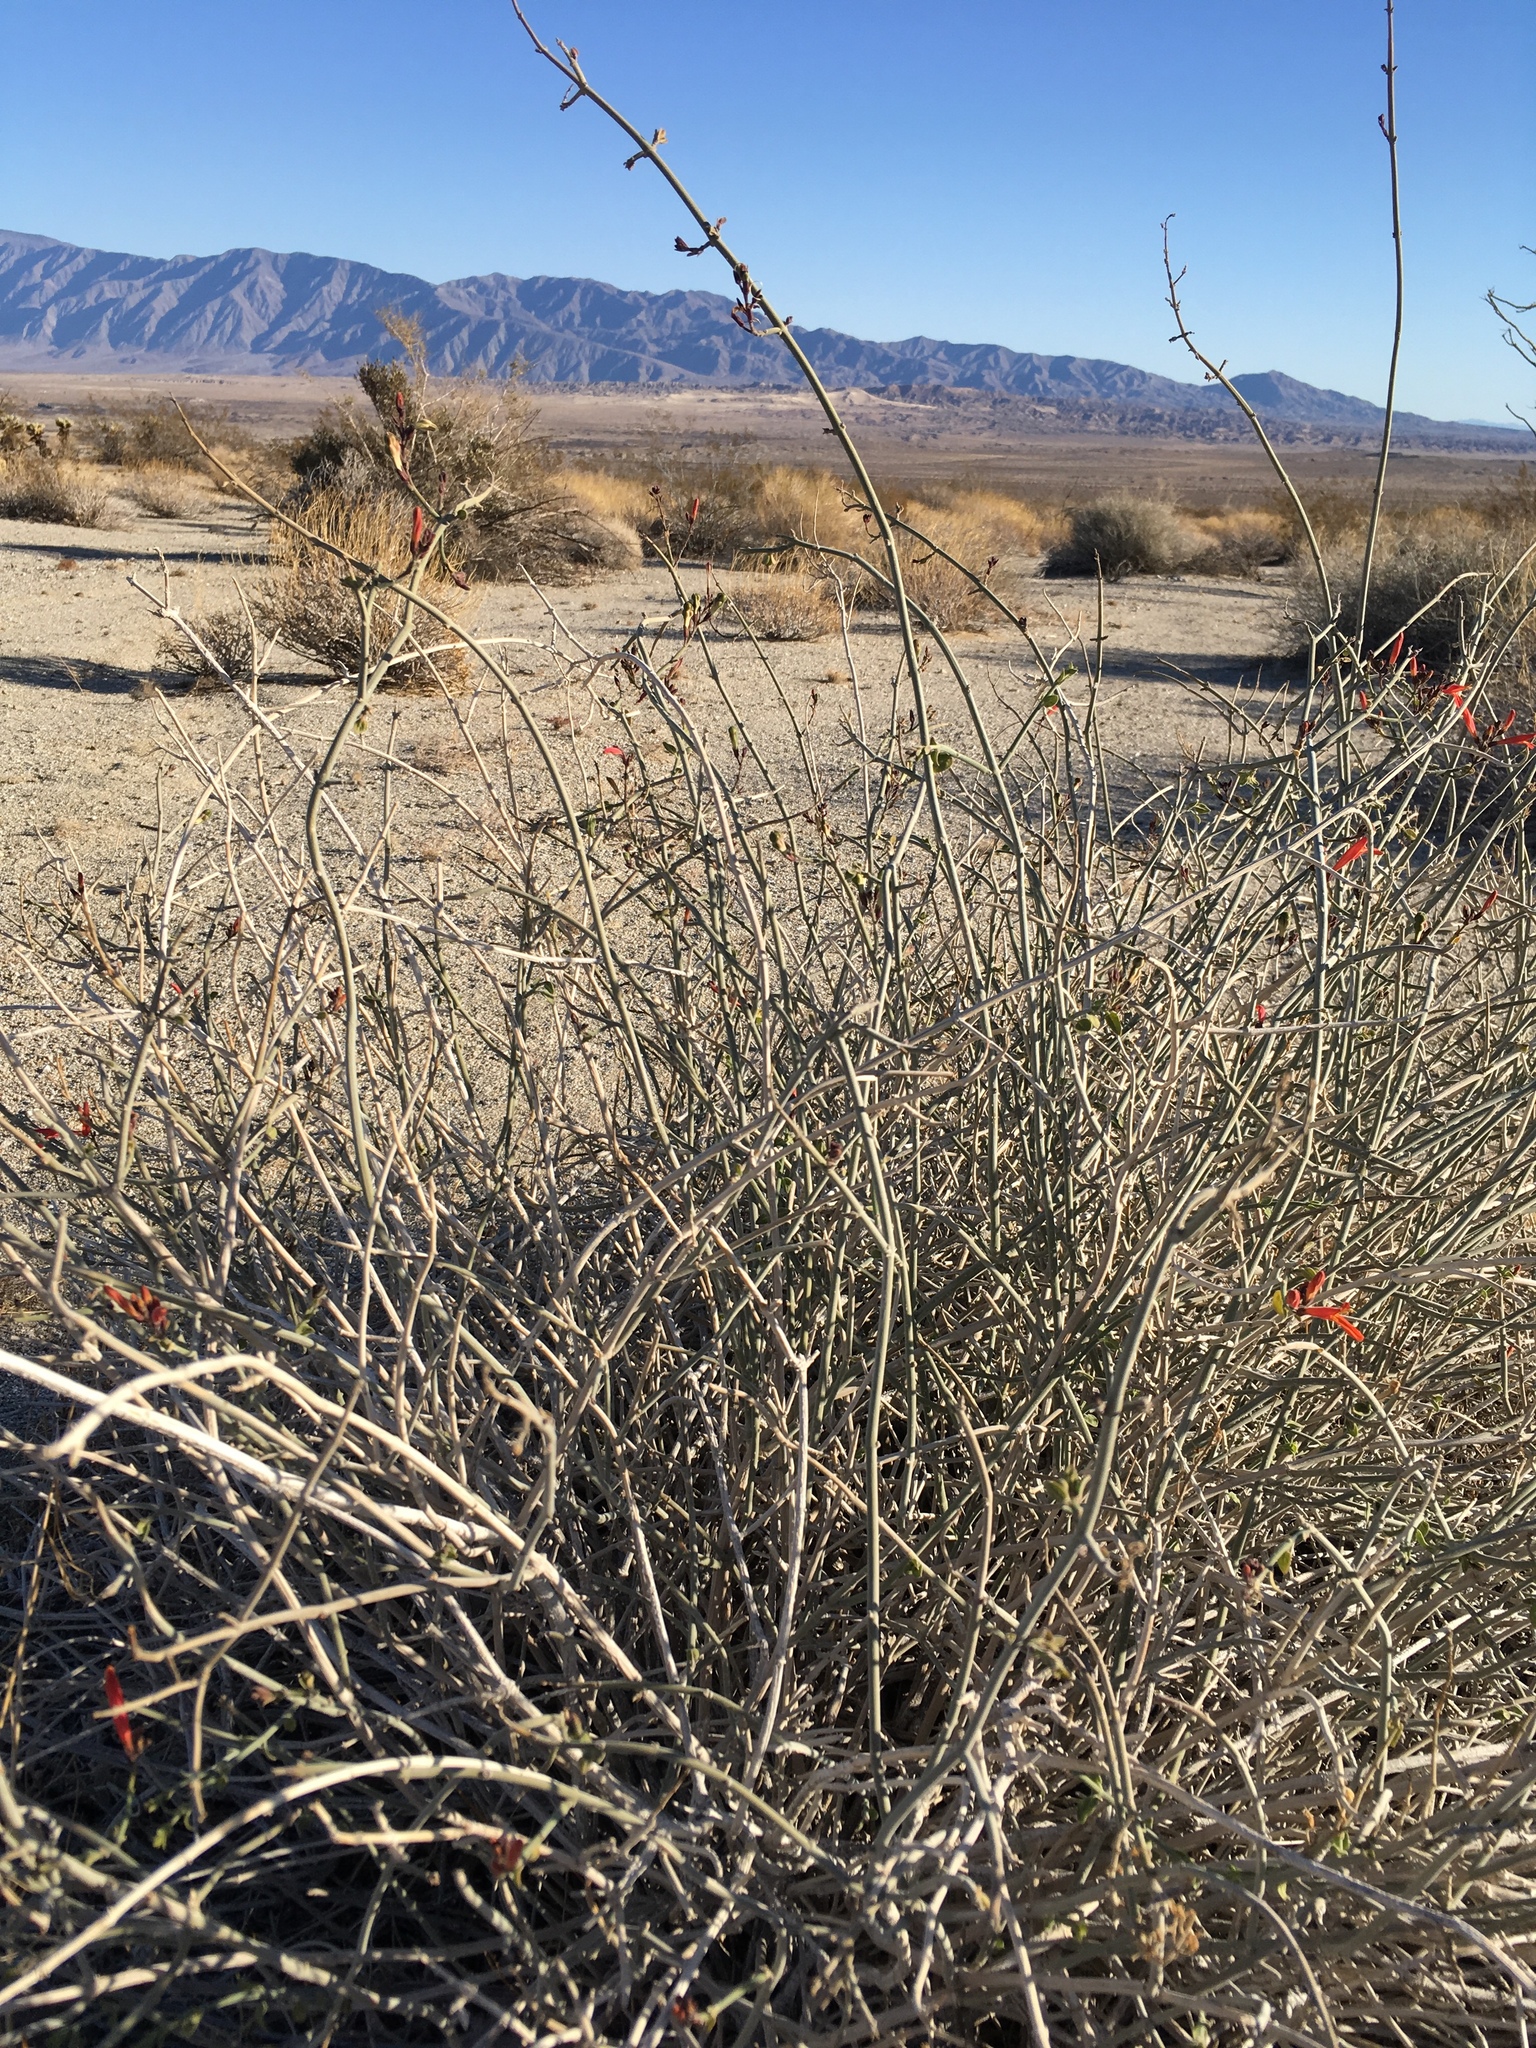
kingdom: Plantae
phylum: Tracheophyta
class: Magnoliopsida
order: Lamiales
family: Acanthaceae
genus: Justicia
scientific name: Justicia californica
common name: Chuparosa-honeysuckle
